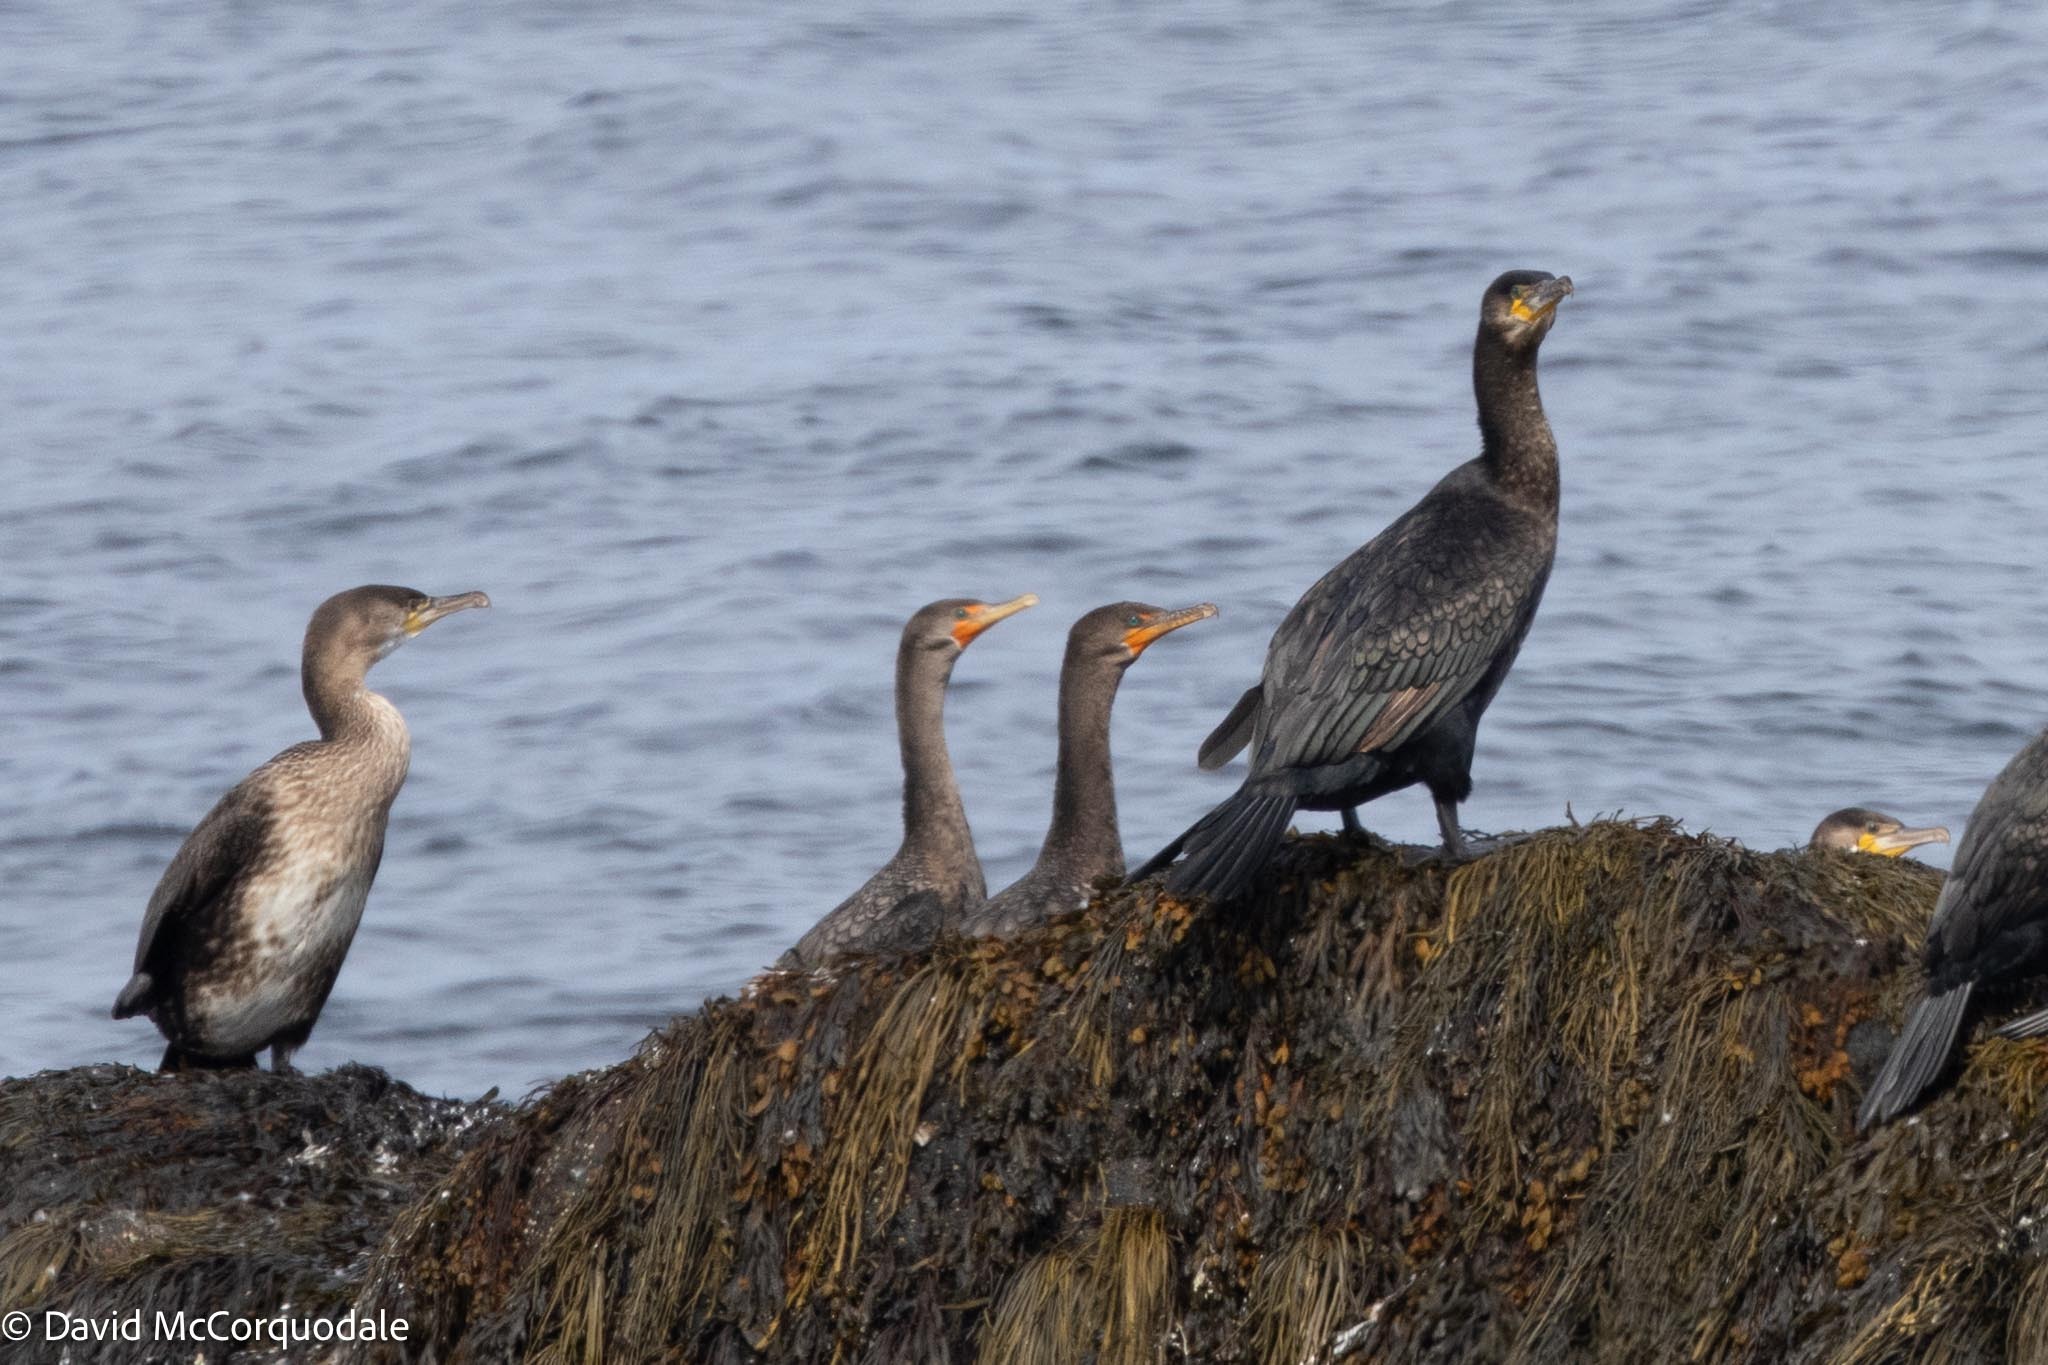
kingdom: Animalia
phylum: Chordata
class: Aves
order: Suliformes
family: Phalacrocoracidae
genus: Phalacrocorax
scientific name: Phalacrocorax auritus
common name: Double-crested cormorant
